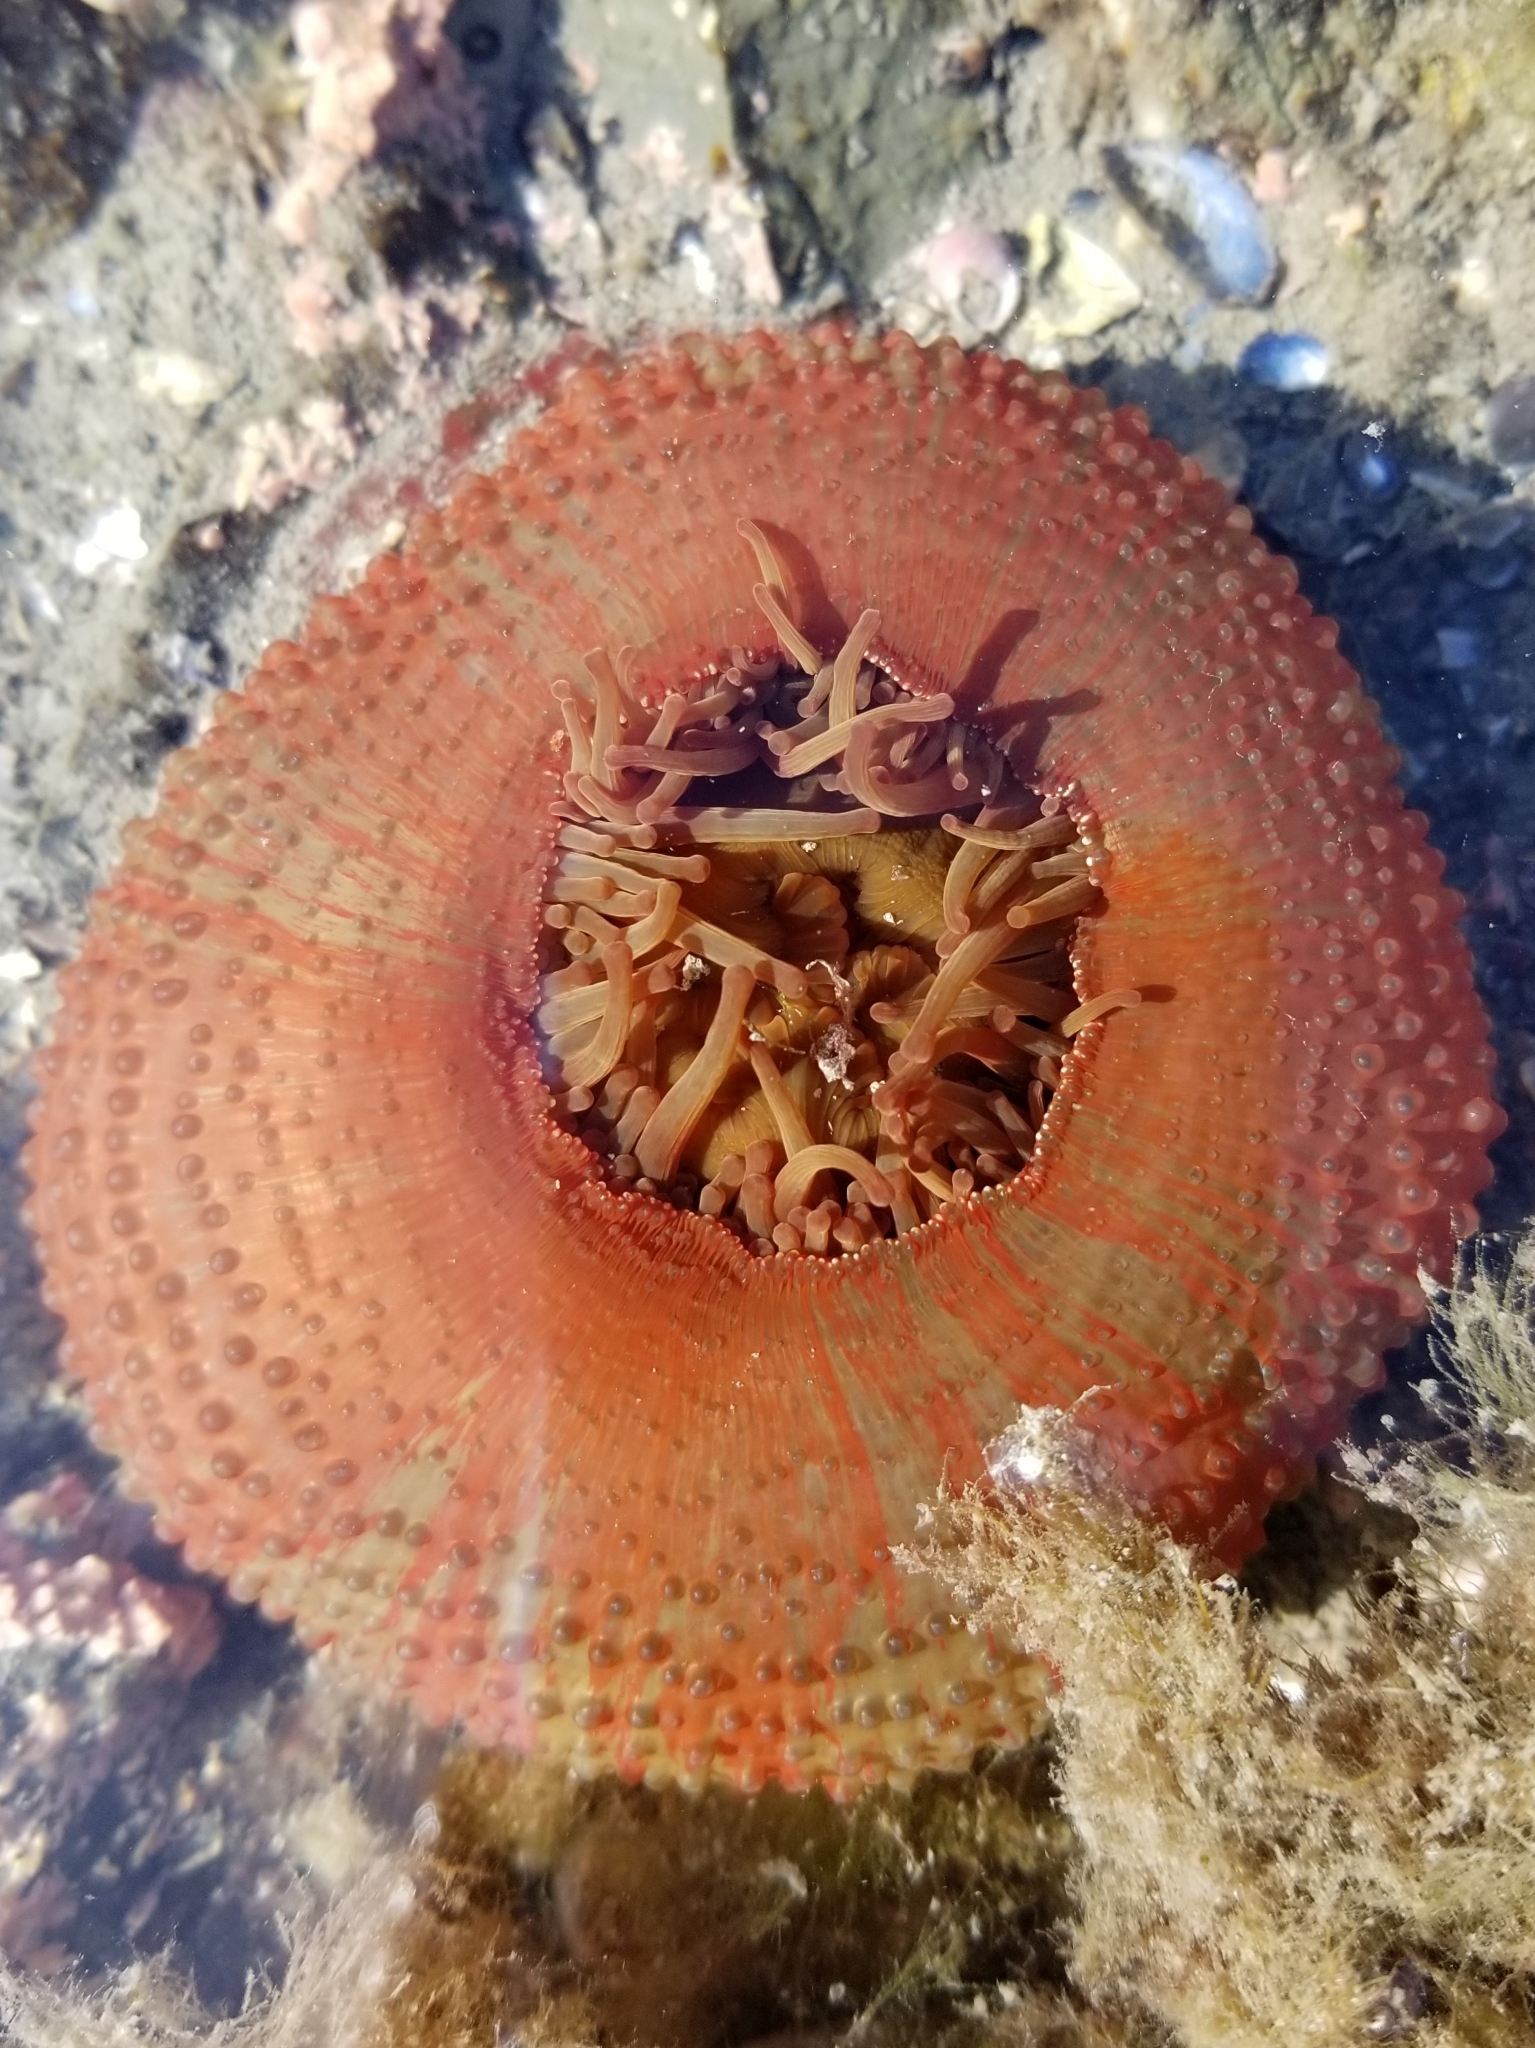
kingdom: Animalia
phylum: Cnidaria
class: Anthozoa
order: Actiniaria
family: Actiniidae
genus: Urticina
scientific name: Urticina grebelnyi
